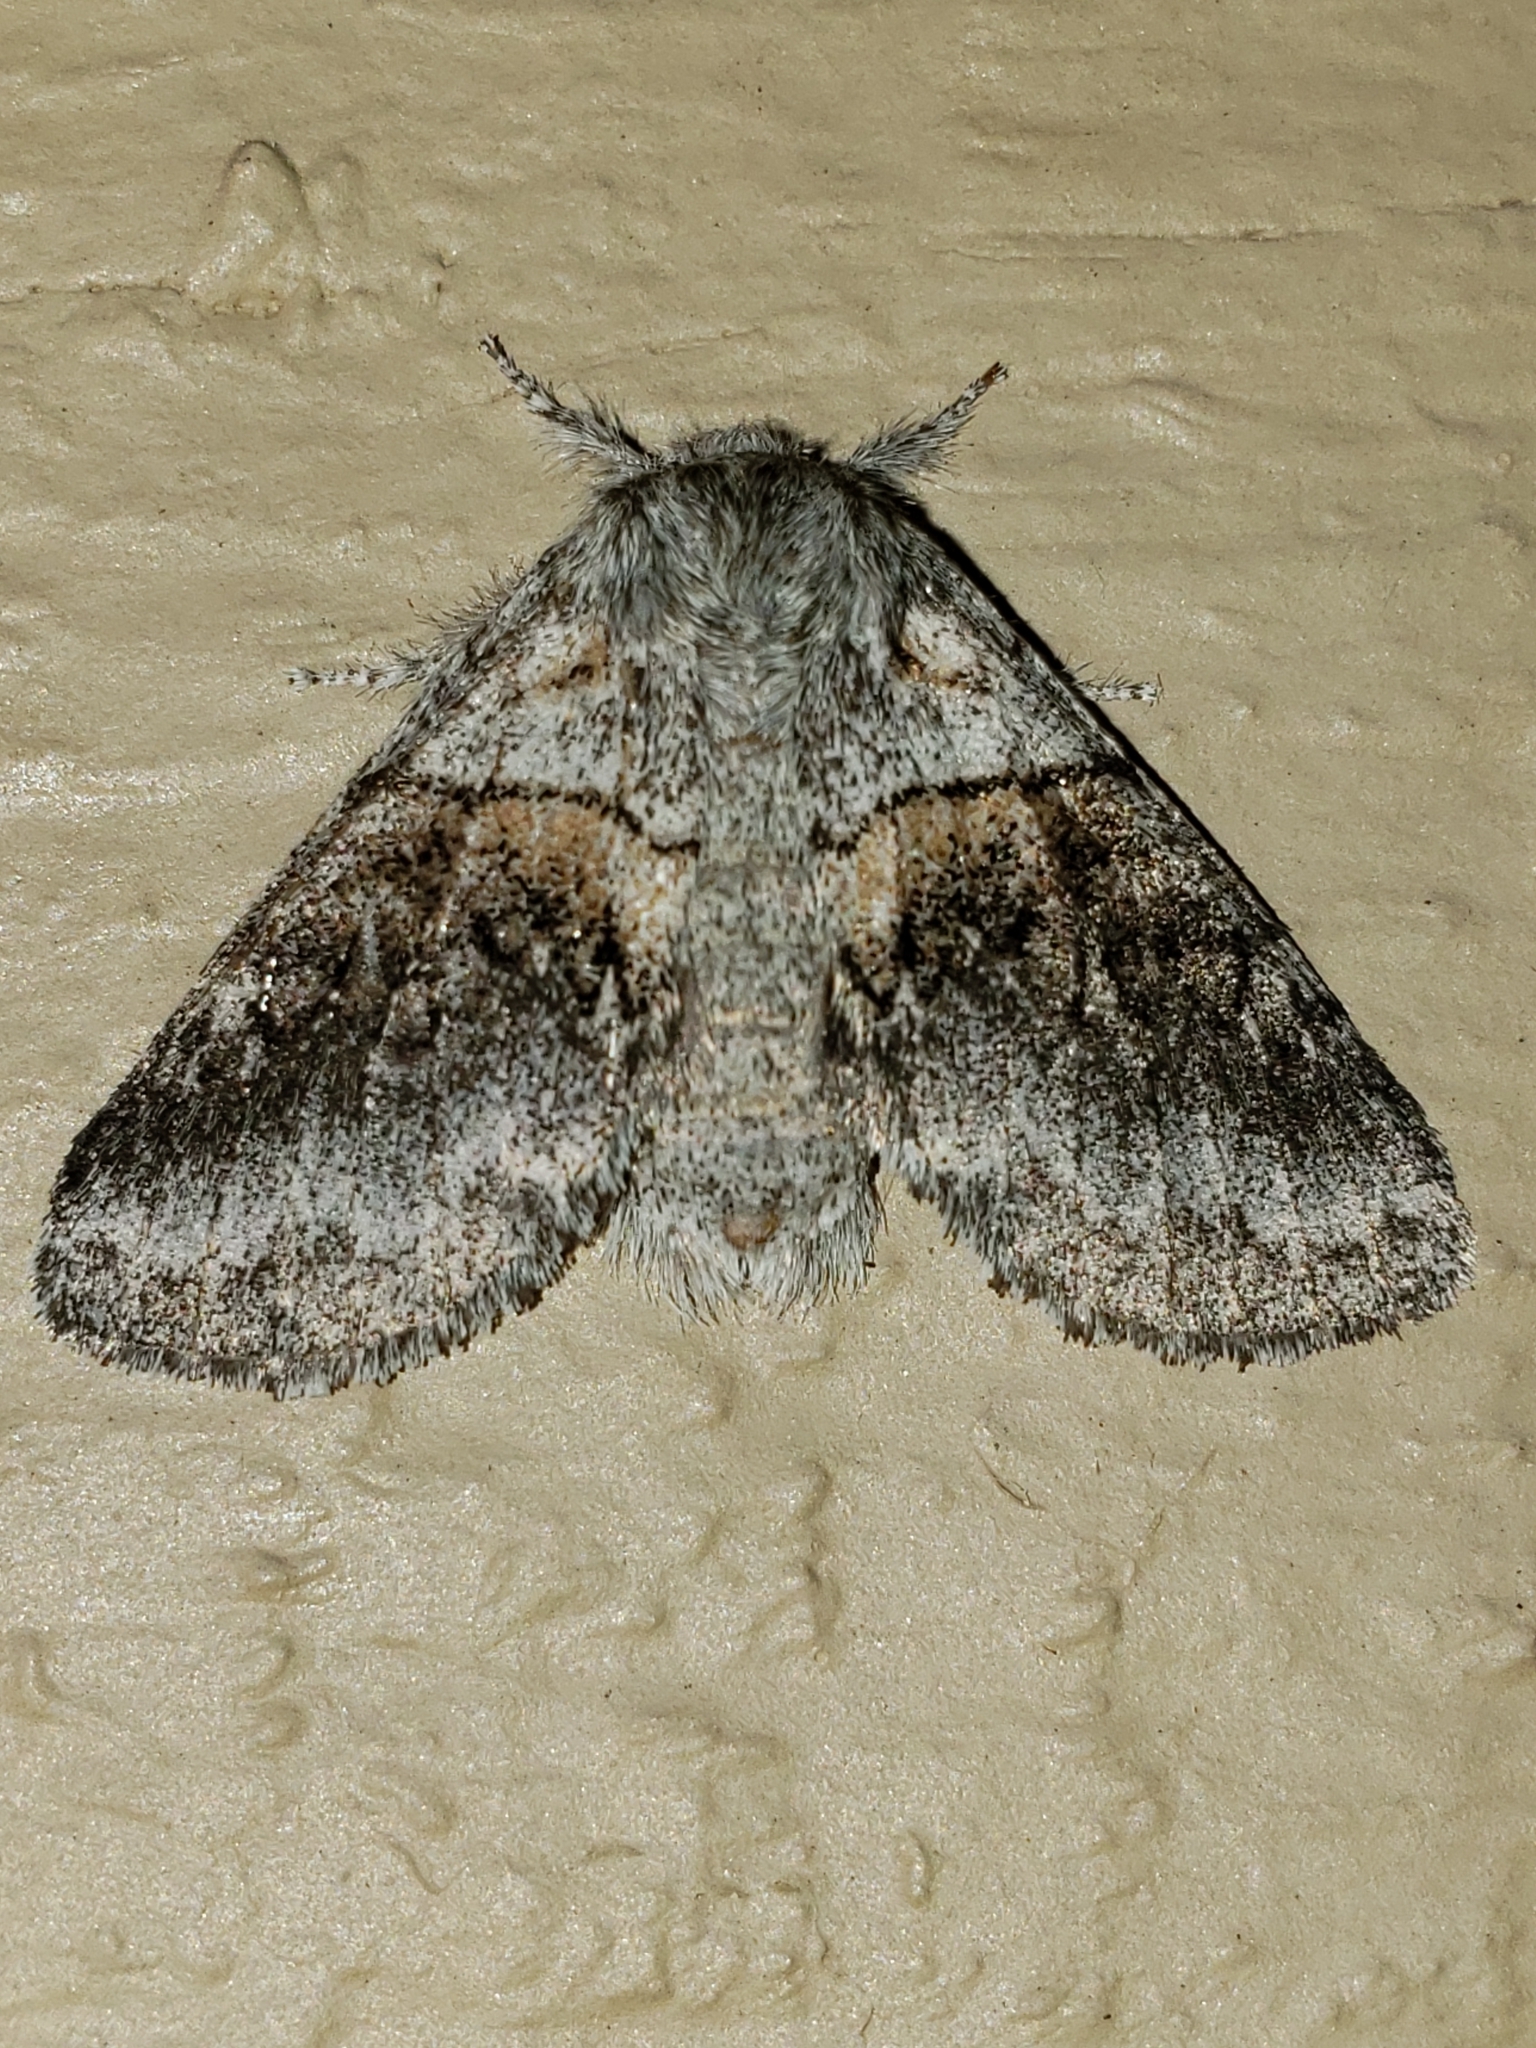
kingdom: Animalia
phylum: Arthropoda
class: Insecta
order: Lepidoptera
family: Notodontidae
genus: Gluphisia
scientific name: Gluphisia septentrionis
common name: Common gluphisia
